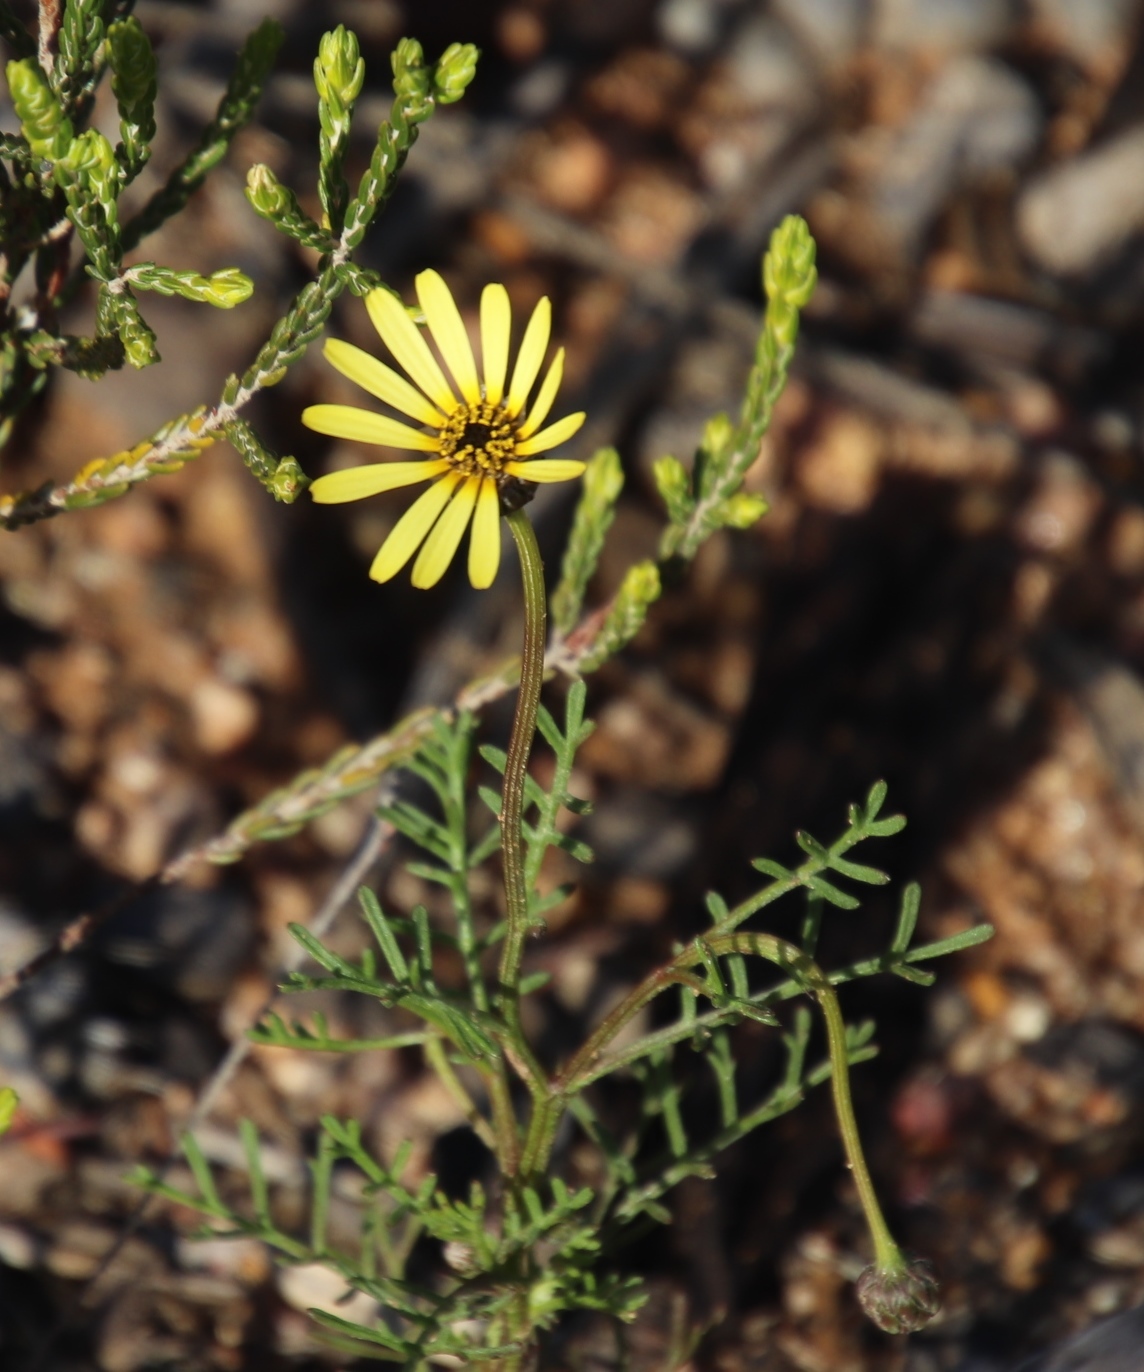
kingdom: Plantae
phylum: Tracheophyta
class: Magnoliopsida
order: Asterales
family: Asteraceae
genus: Ursinia
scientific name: Ursinia anthemoides
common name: Ursinia
